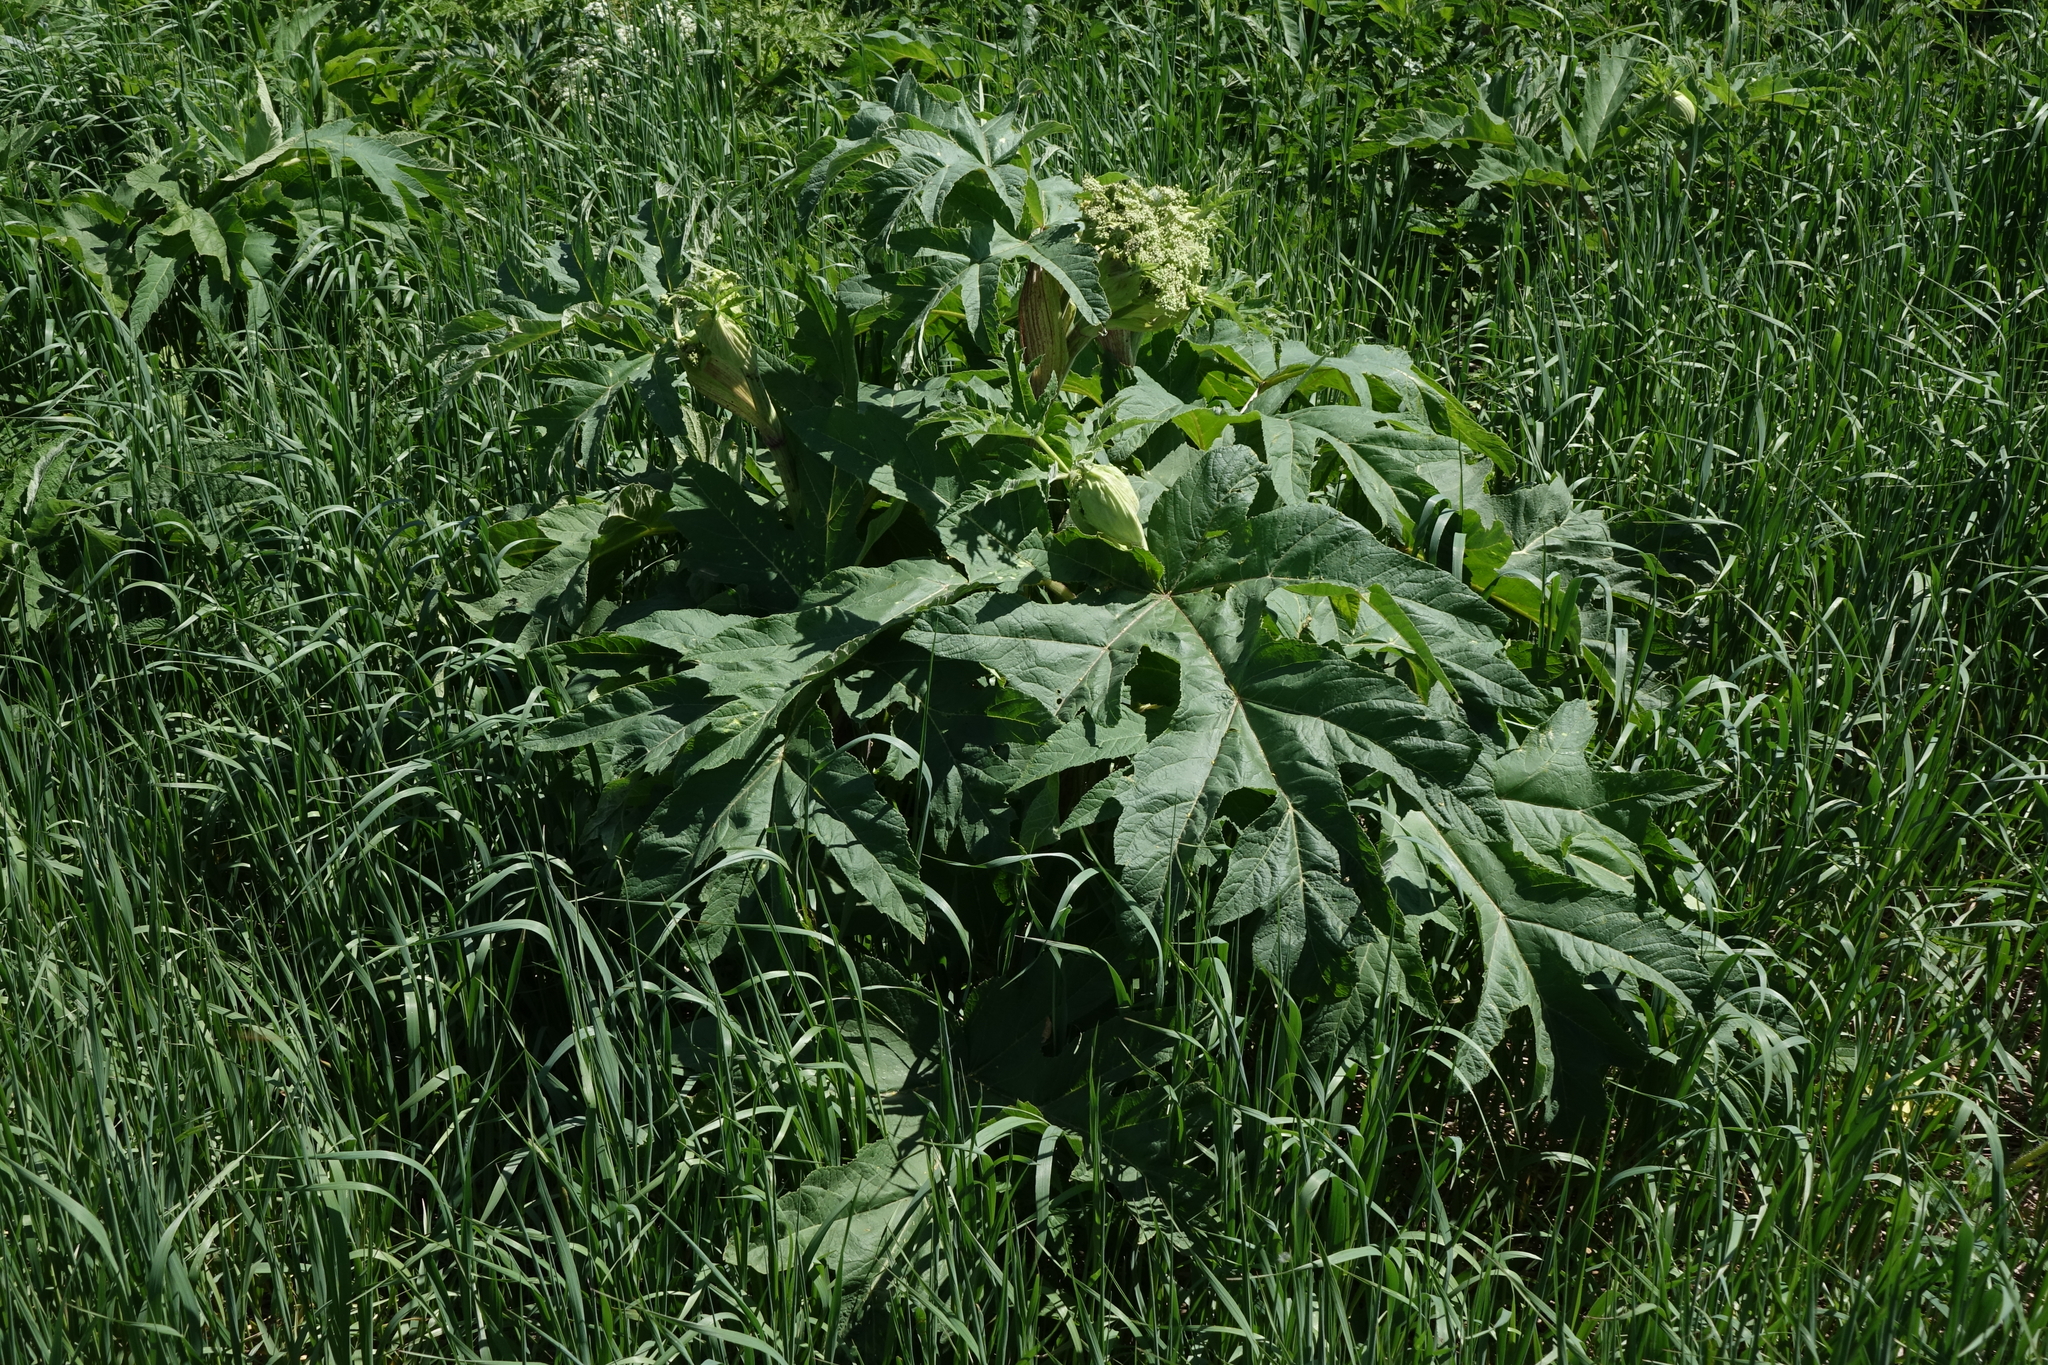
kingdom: Plantae
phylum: Tracheophyta
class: Magnoliopsida
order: Apiales
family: Apiaceae
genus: Heracleum
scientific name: Heracleum dissectum
